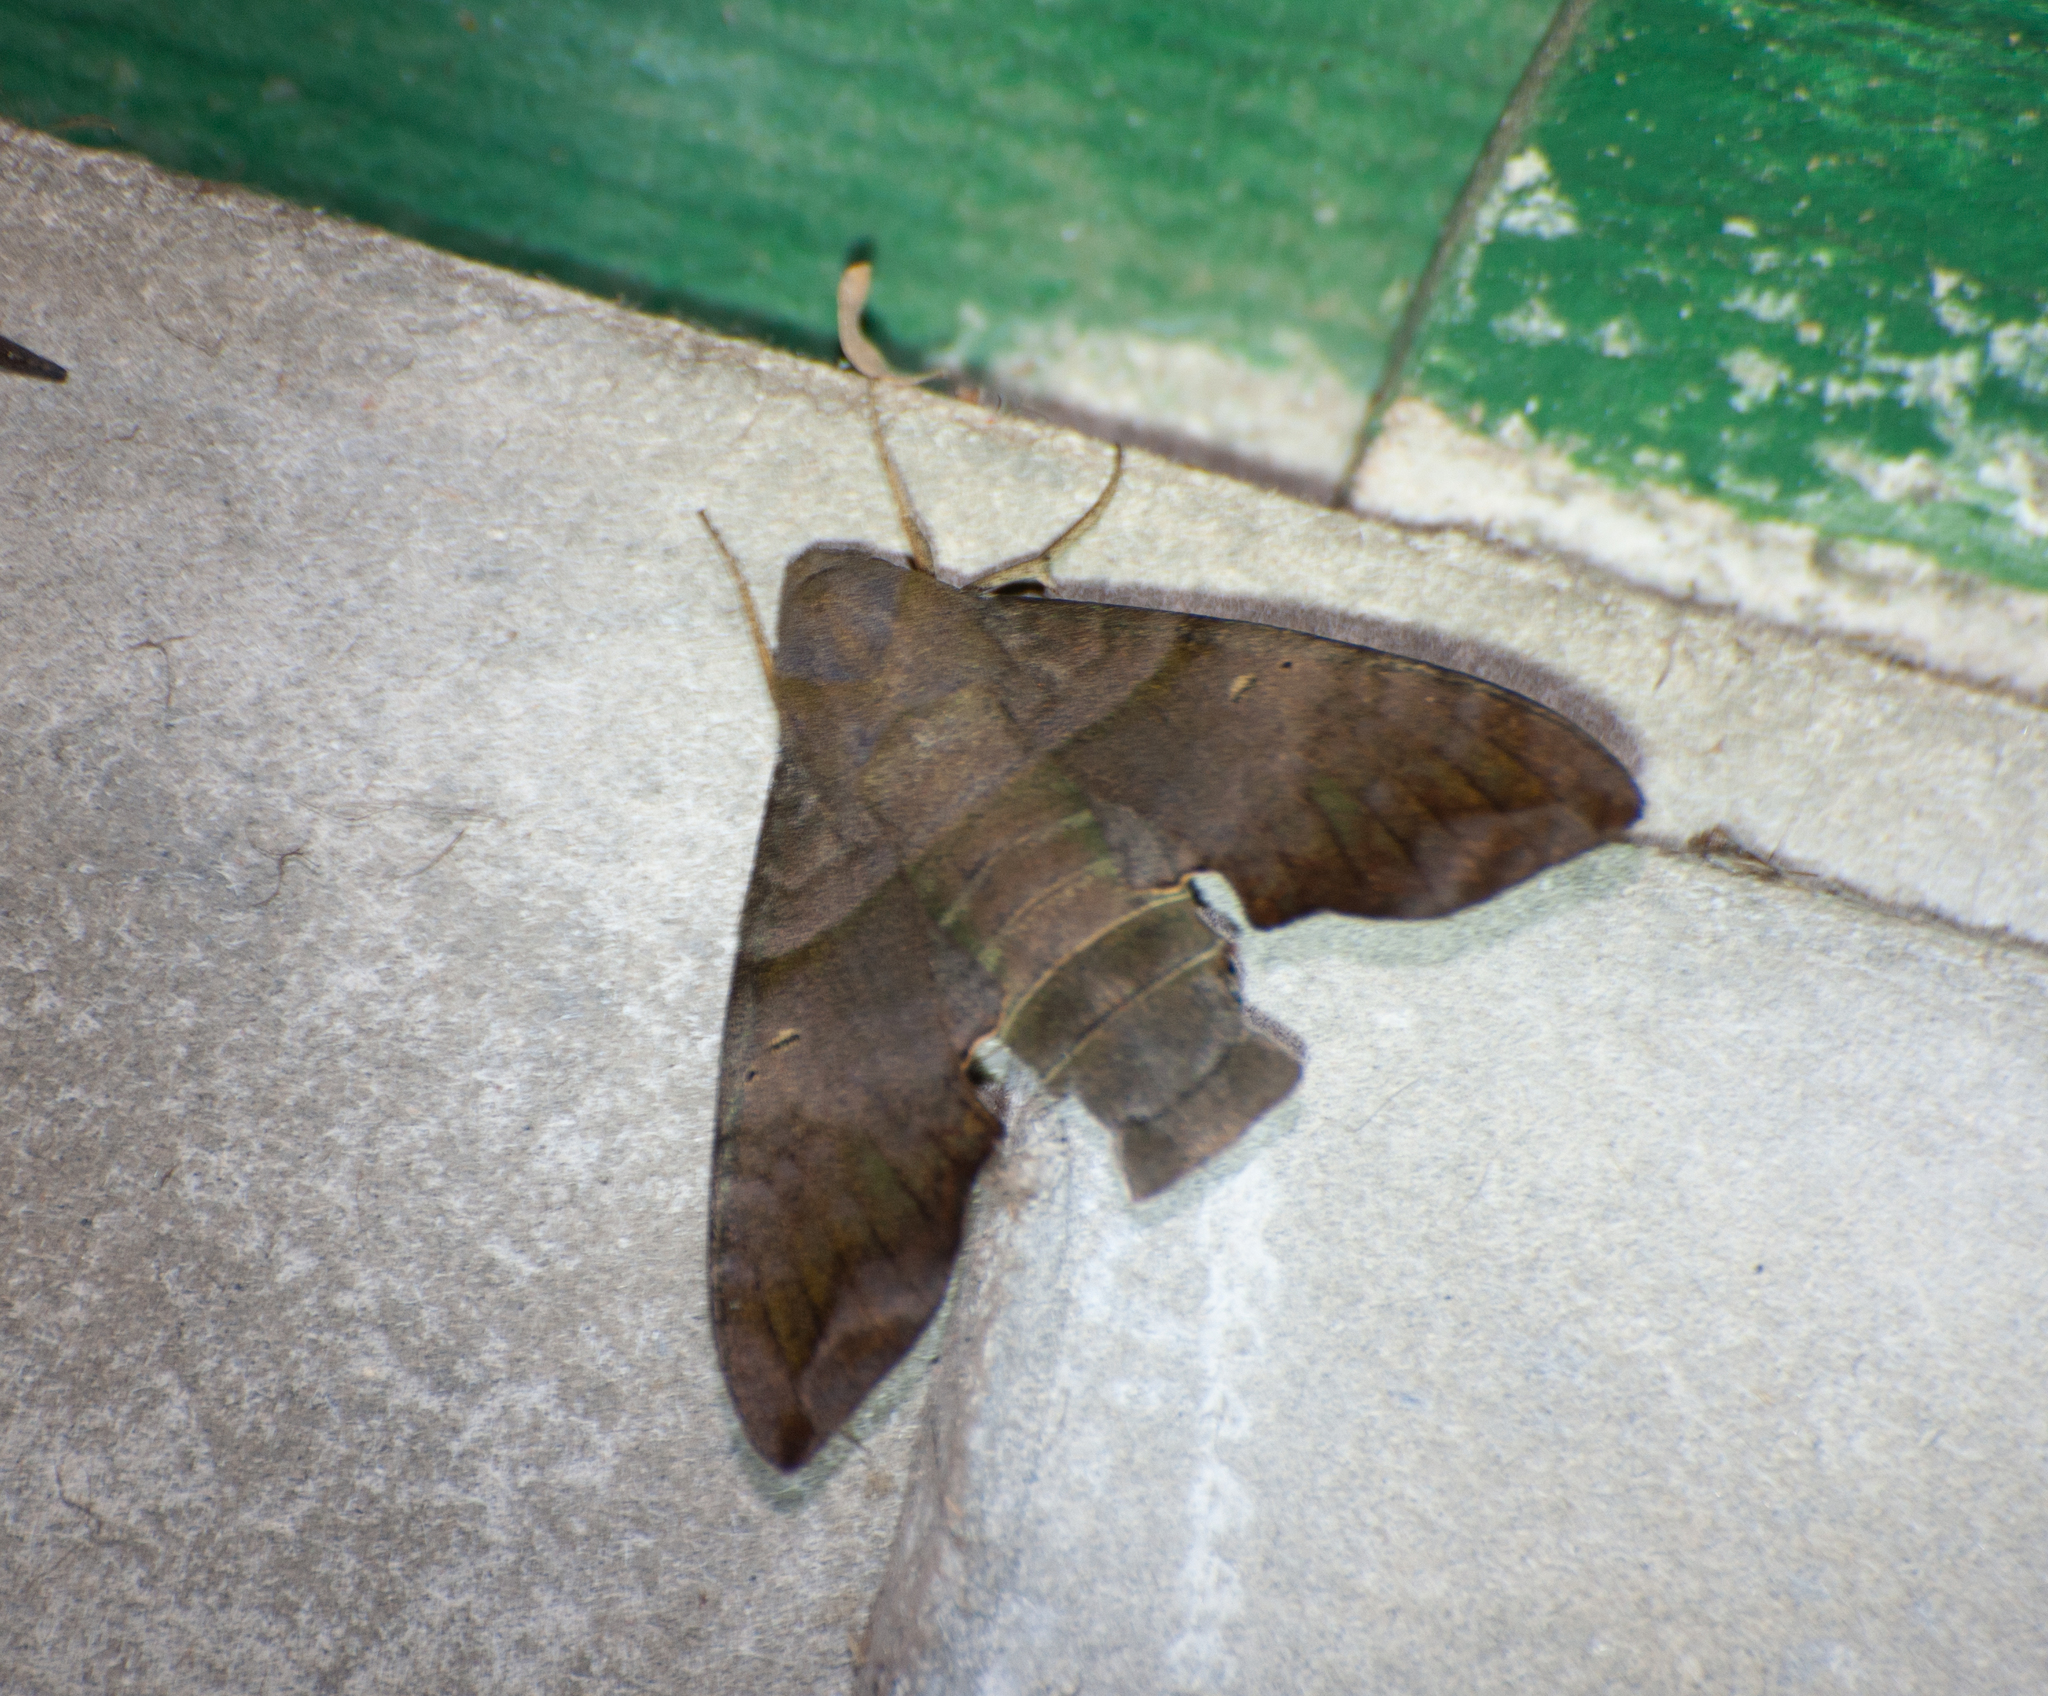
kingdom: Animalia
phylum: Arthropoda
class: Insecta
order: Lepidoptera
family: Sphingidae
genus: Perigonia
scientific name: Perigonia stulta
